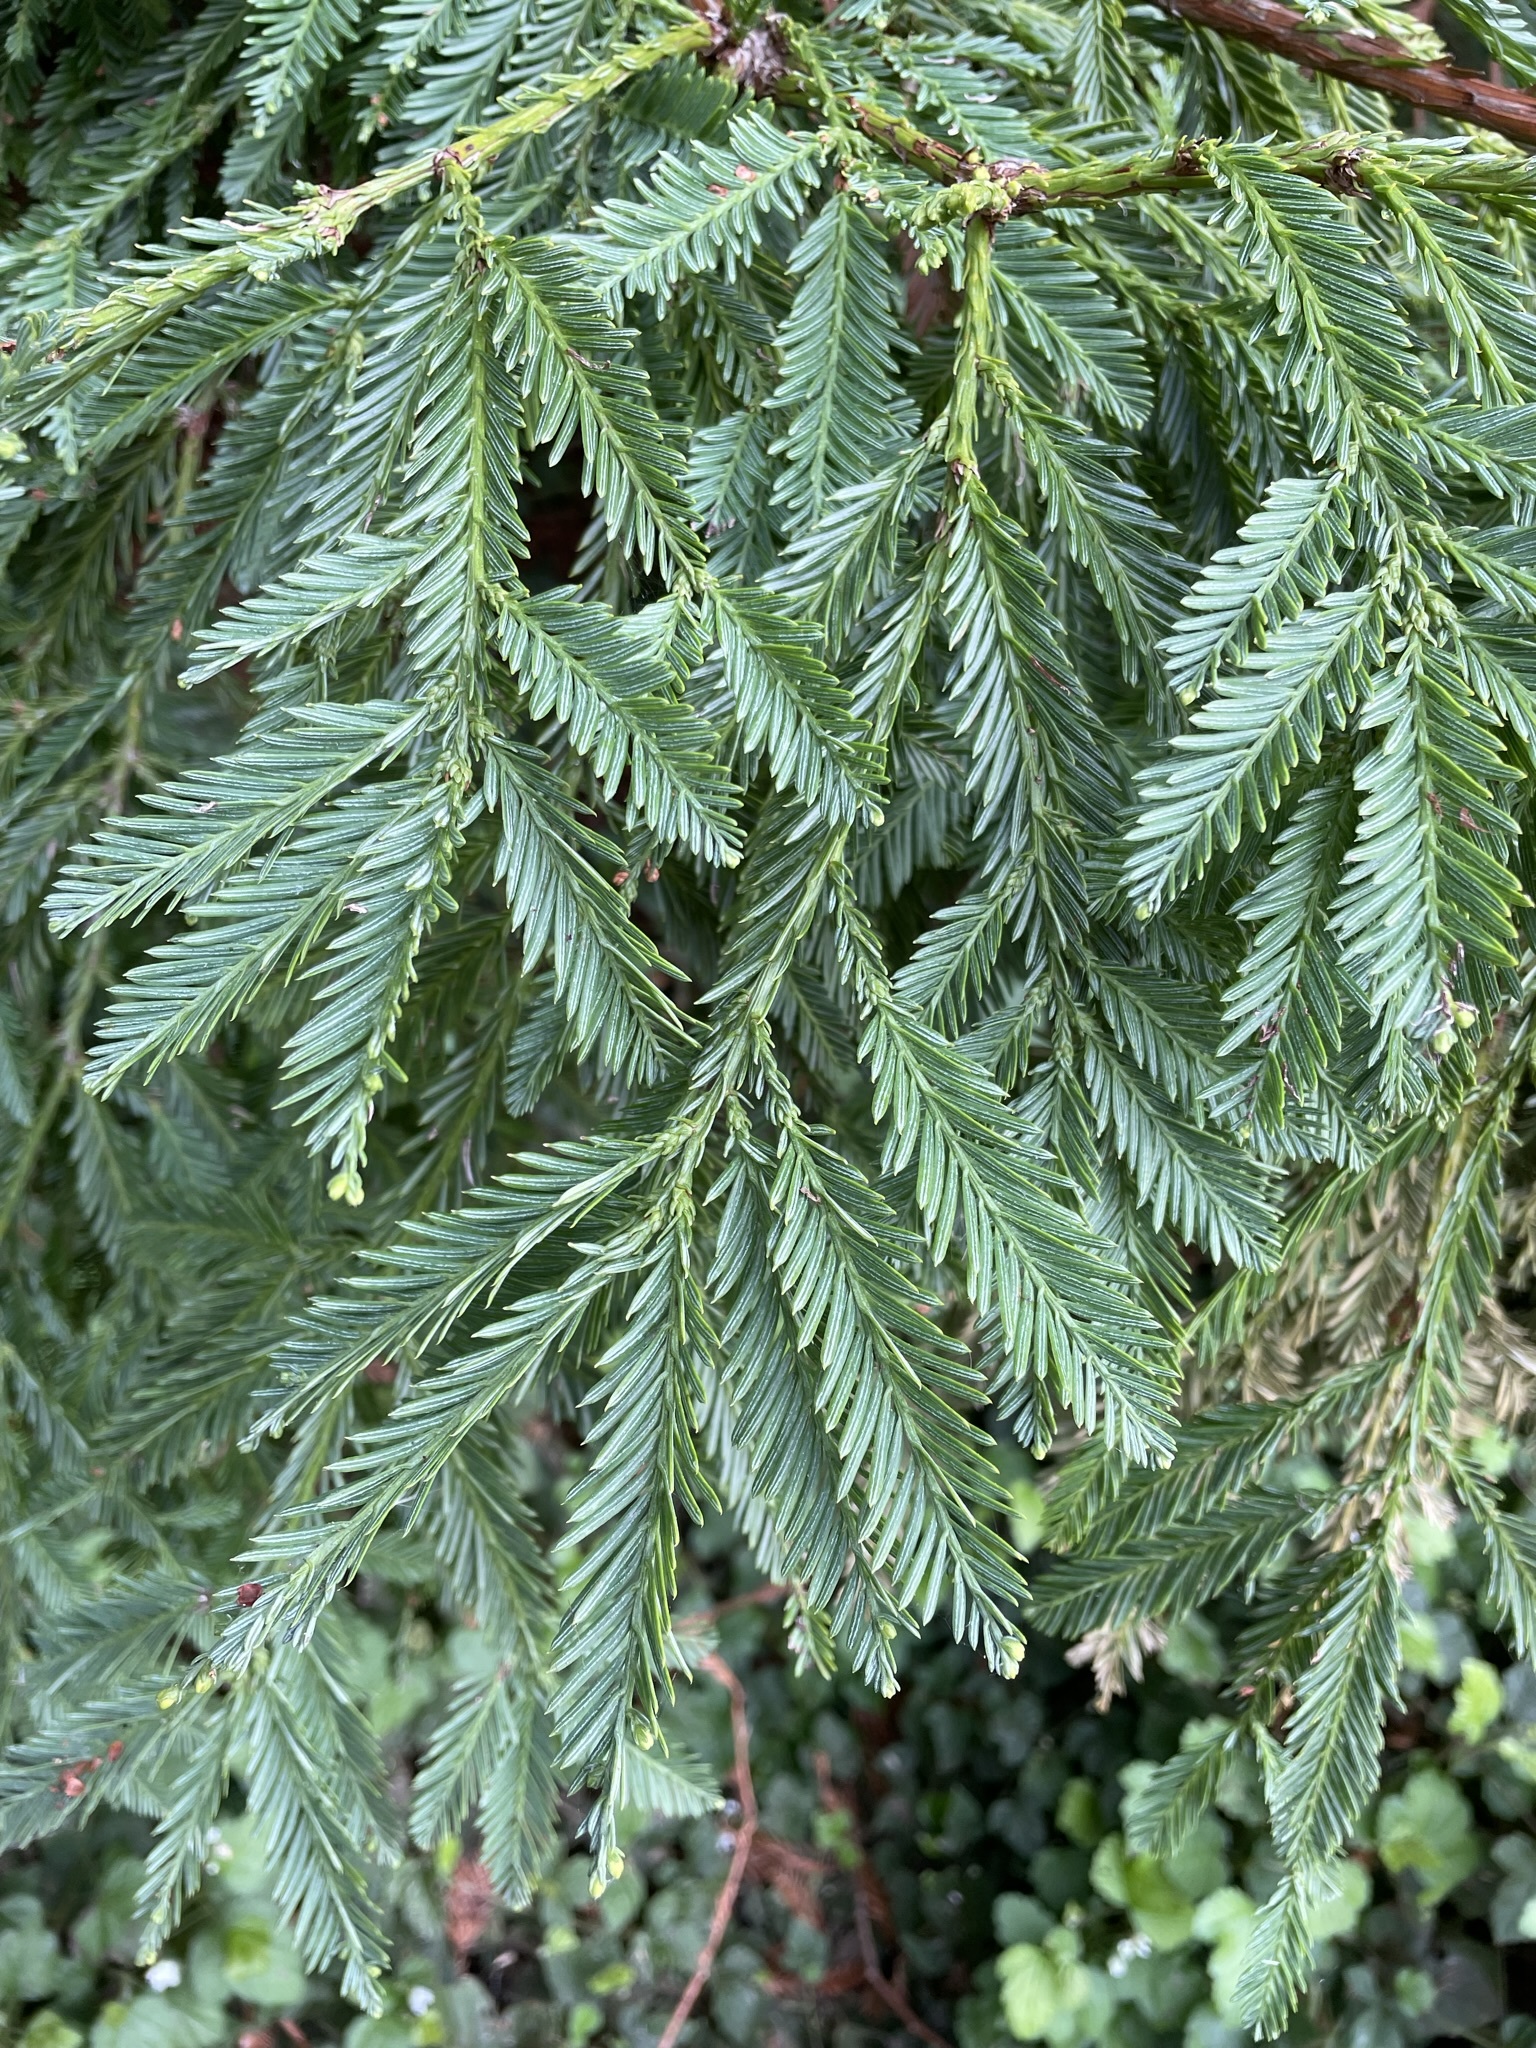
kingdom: Plantae
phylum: Tracheophyta
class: Pinopsida
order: Pinales
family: Cupressaceae
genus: Sequoia
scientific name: Sequoia sempervirens
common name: Coast redwood
